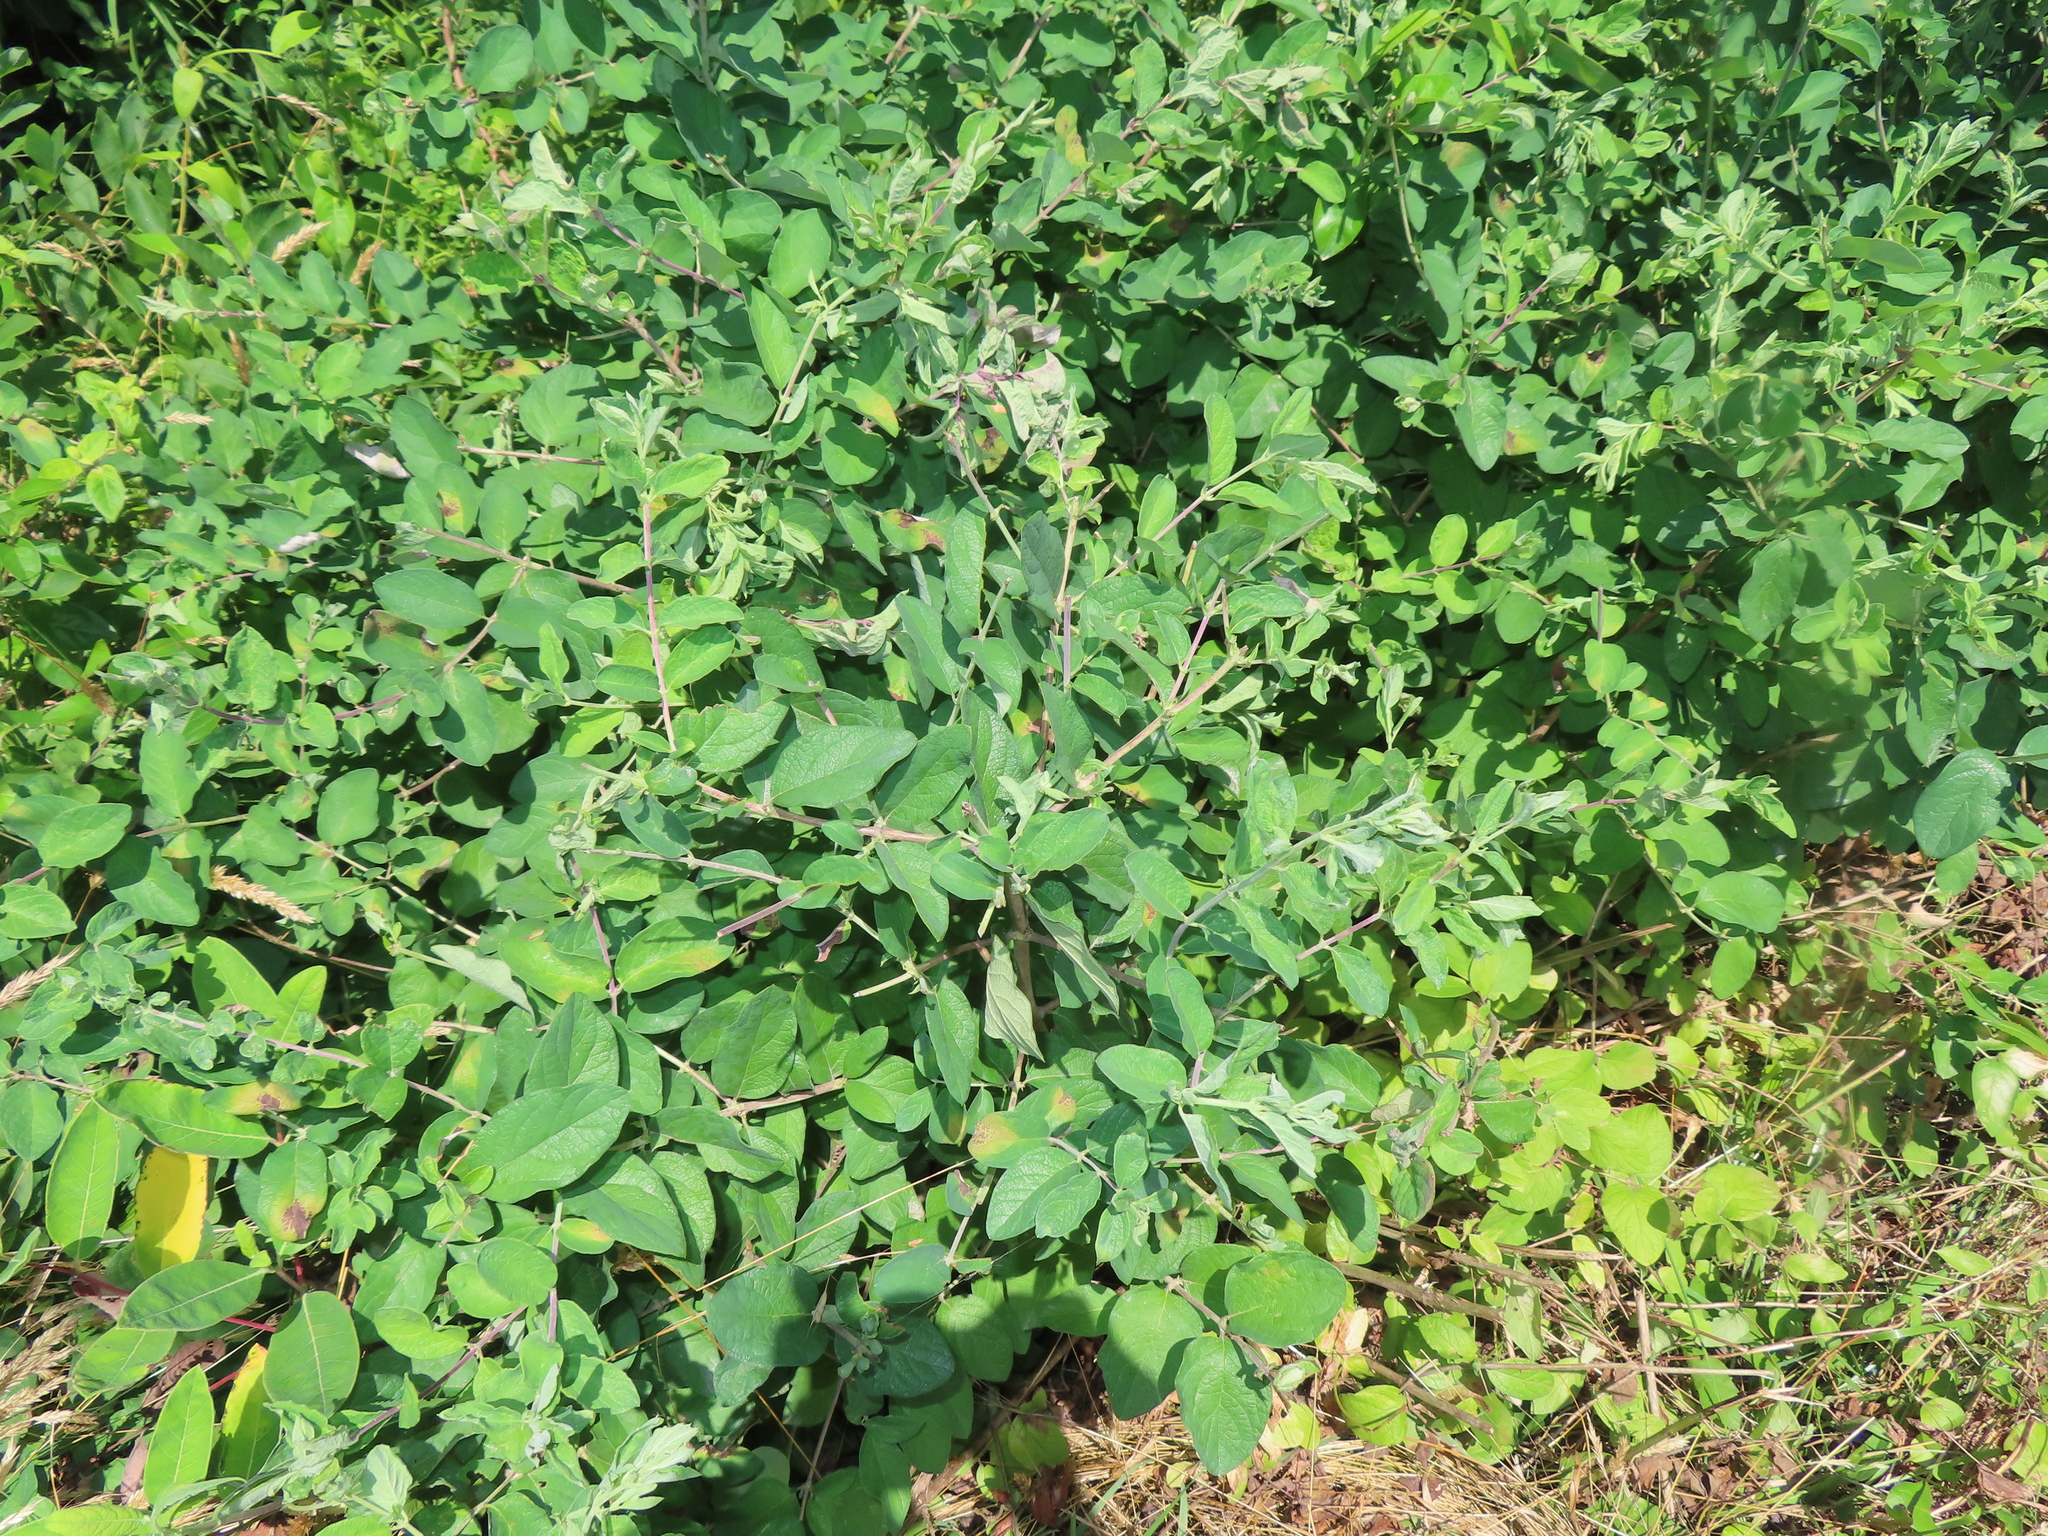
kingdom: Plantae
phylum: Tracheophyta
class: Magnoliopsida
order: Dipsacales
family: Caprifoliaceae
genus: Lonicera
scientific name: Lonicera morrowii
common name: Morrow's honeysuckle
